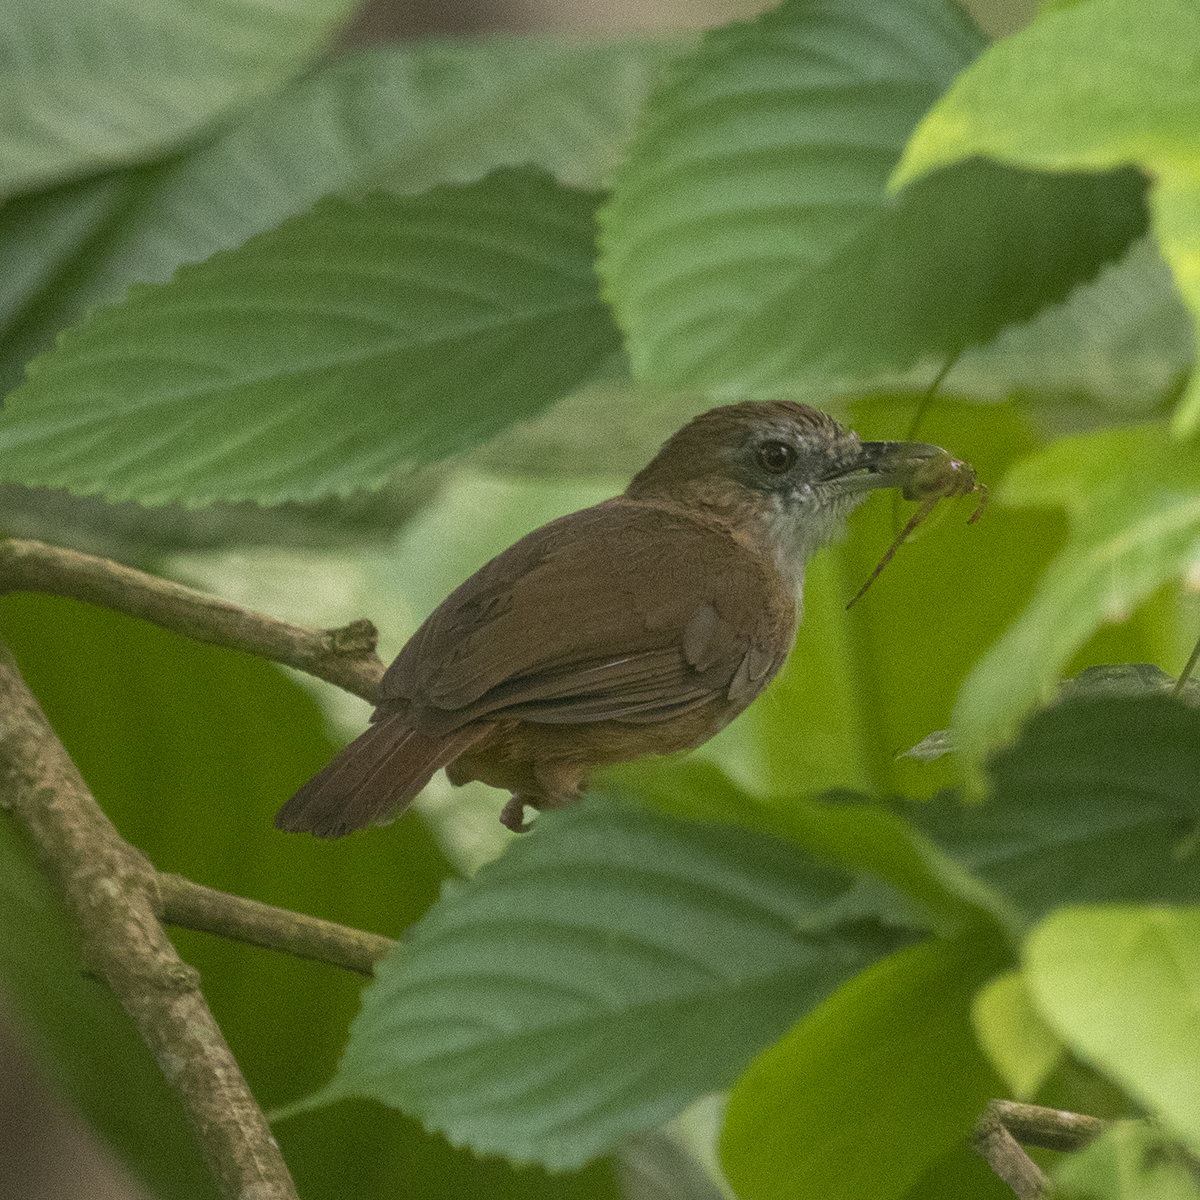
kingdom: Animalia
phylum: Chordata
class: Aves
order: Passeriformes
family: Pellorneidae
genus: Malacocincla
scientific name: Malacocincla abbotti
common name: Abbott's babbler
